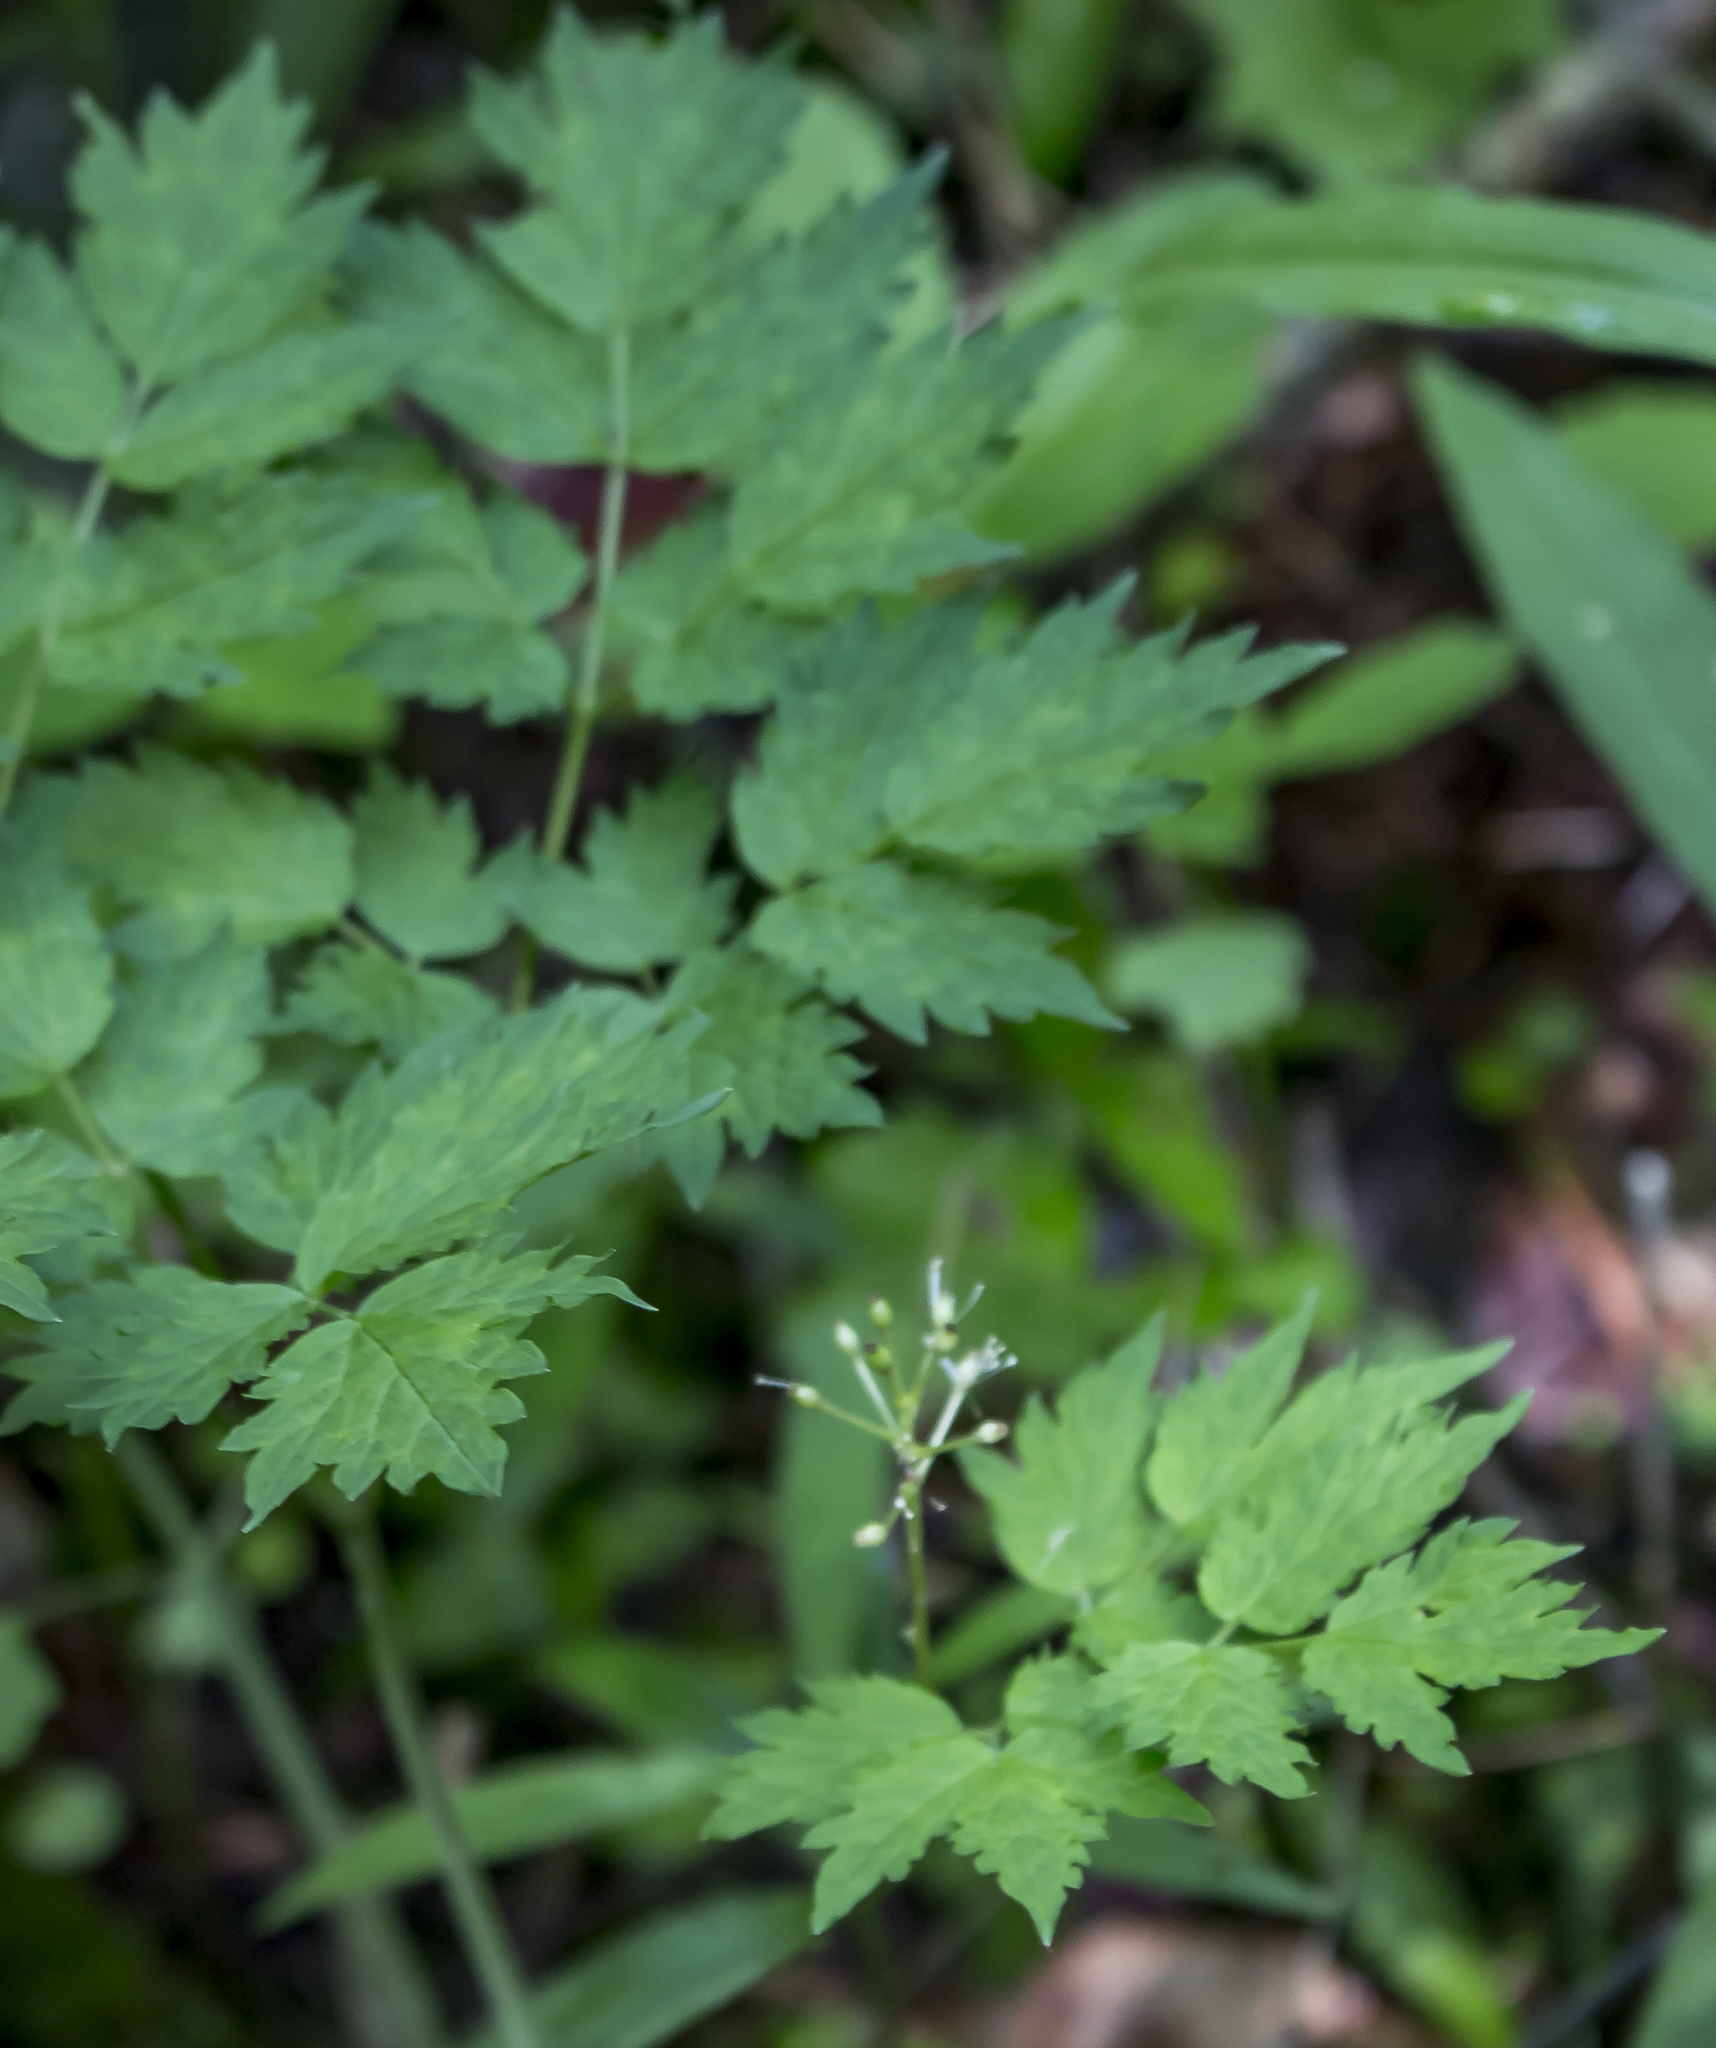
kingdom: Plantae
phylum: Tracheophyta
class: Magnoliopsida
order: Ranunculales
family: Ranunculaceae
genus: Actaea
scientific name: Actaea rubra
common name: Red baneberry
